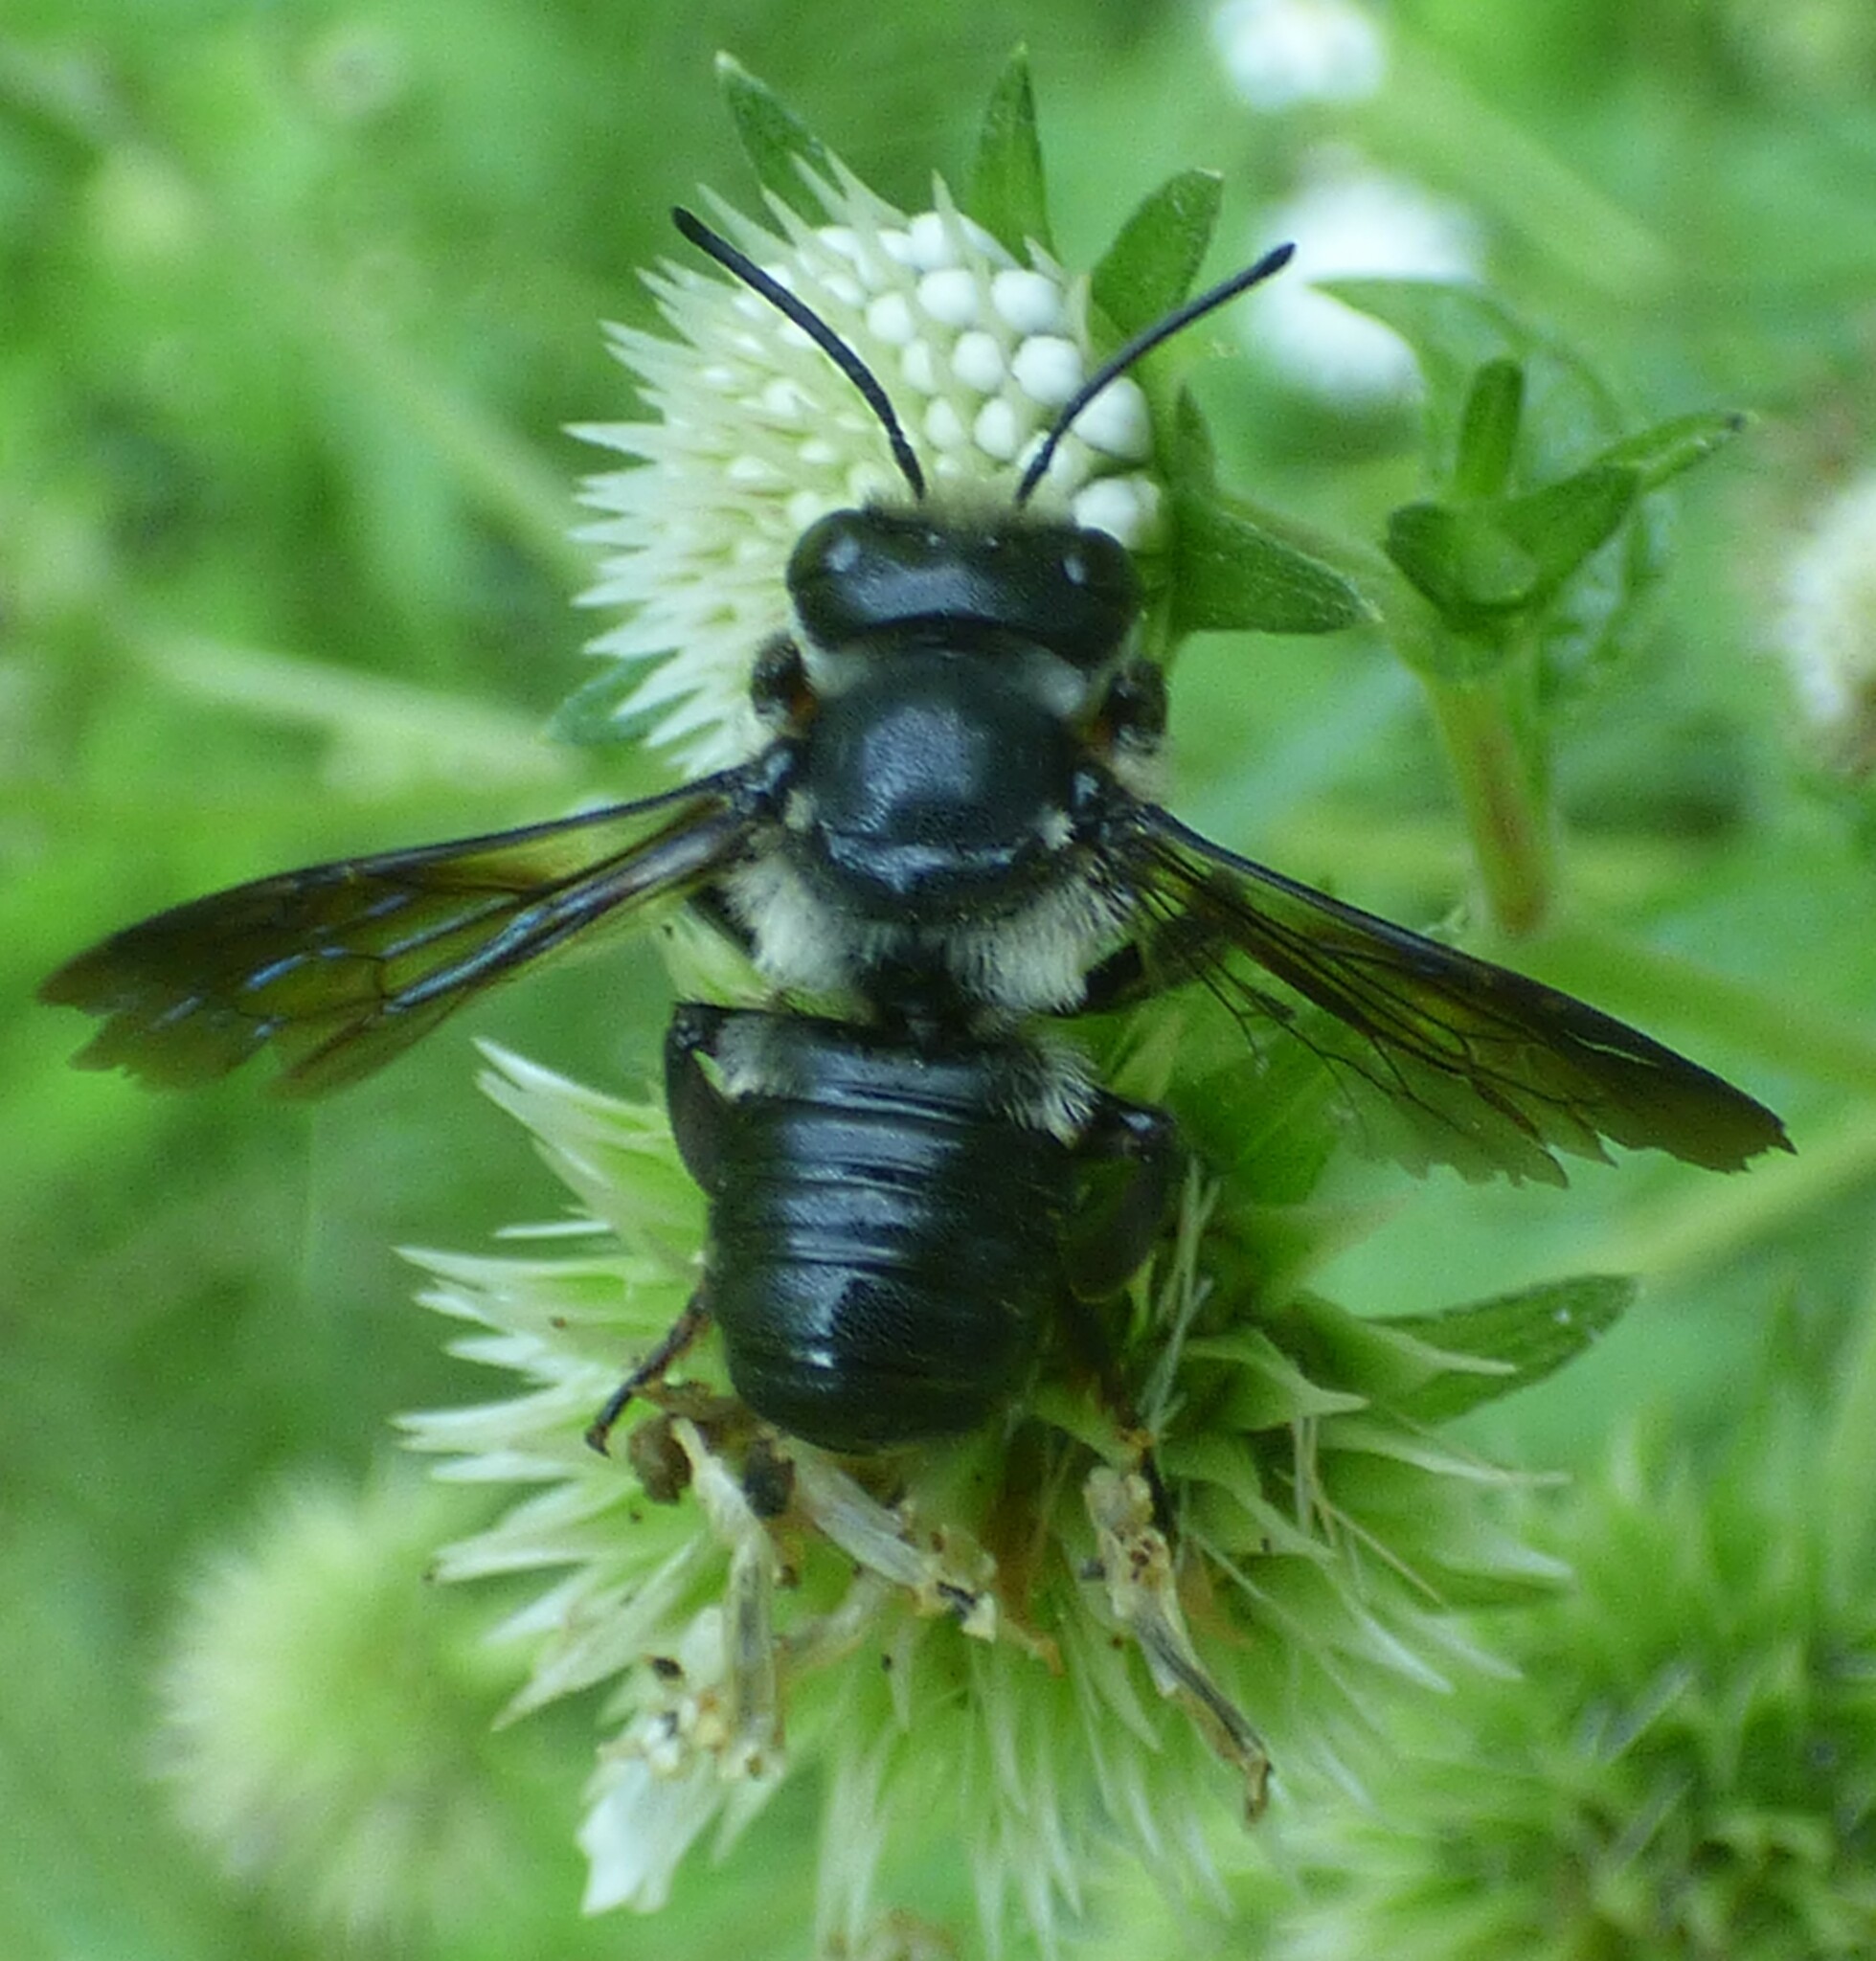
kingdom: Animalia
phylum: Arthropoda
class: Insecta
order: Hymenoptera
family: Megachilidae
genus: Megachile
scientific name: Megachile xylocopoides
